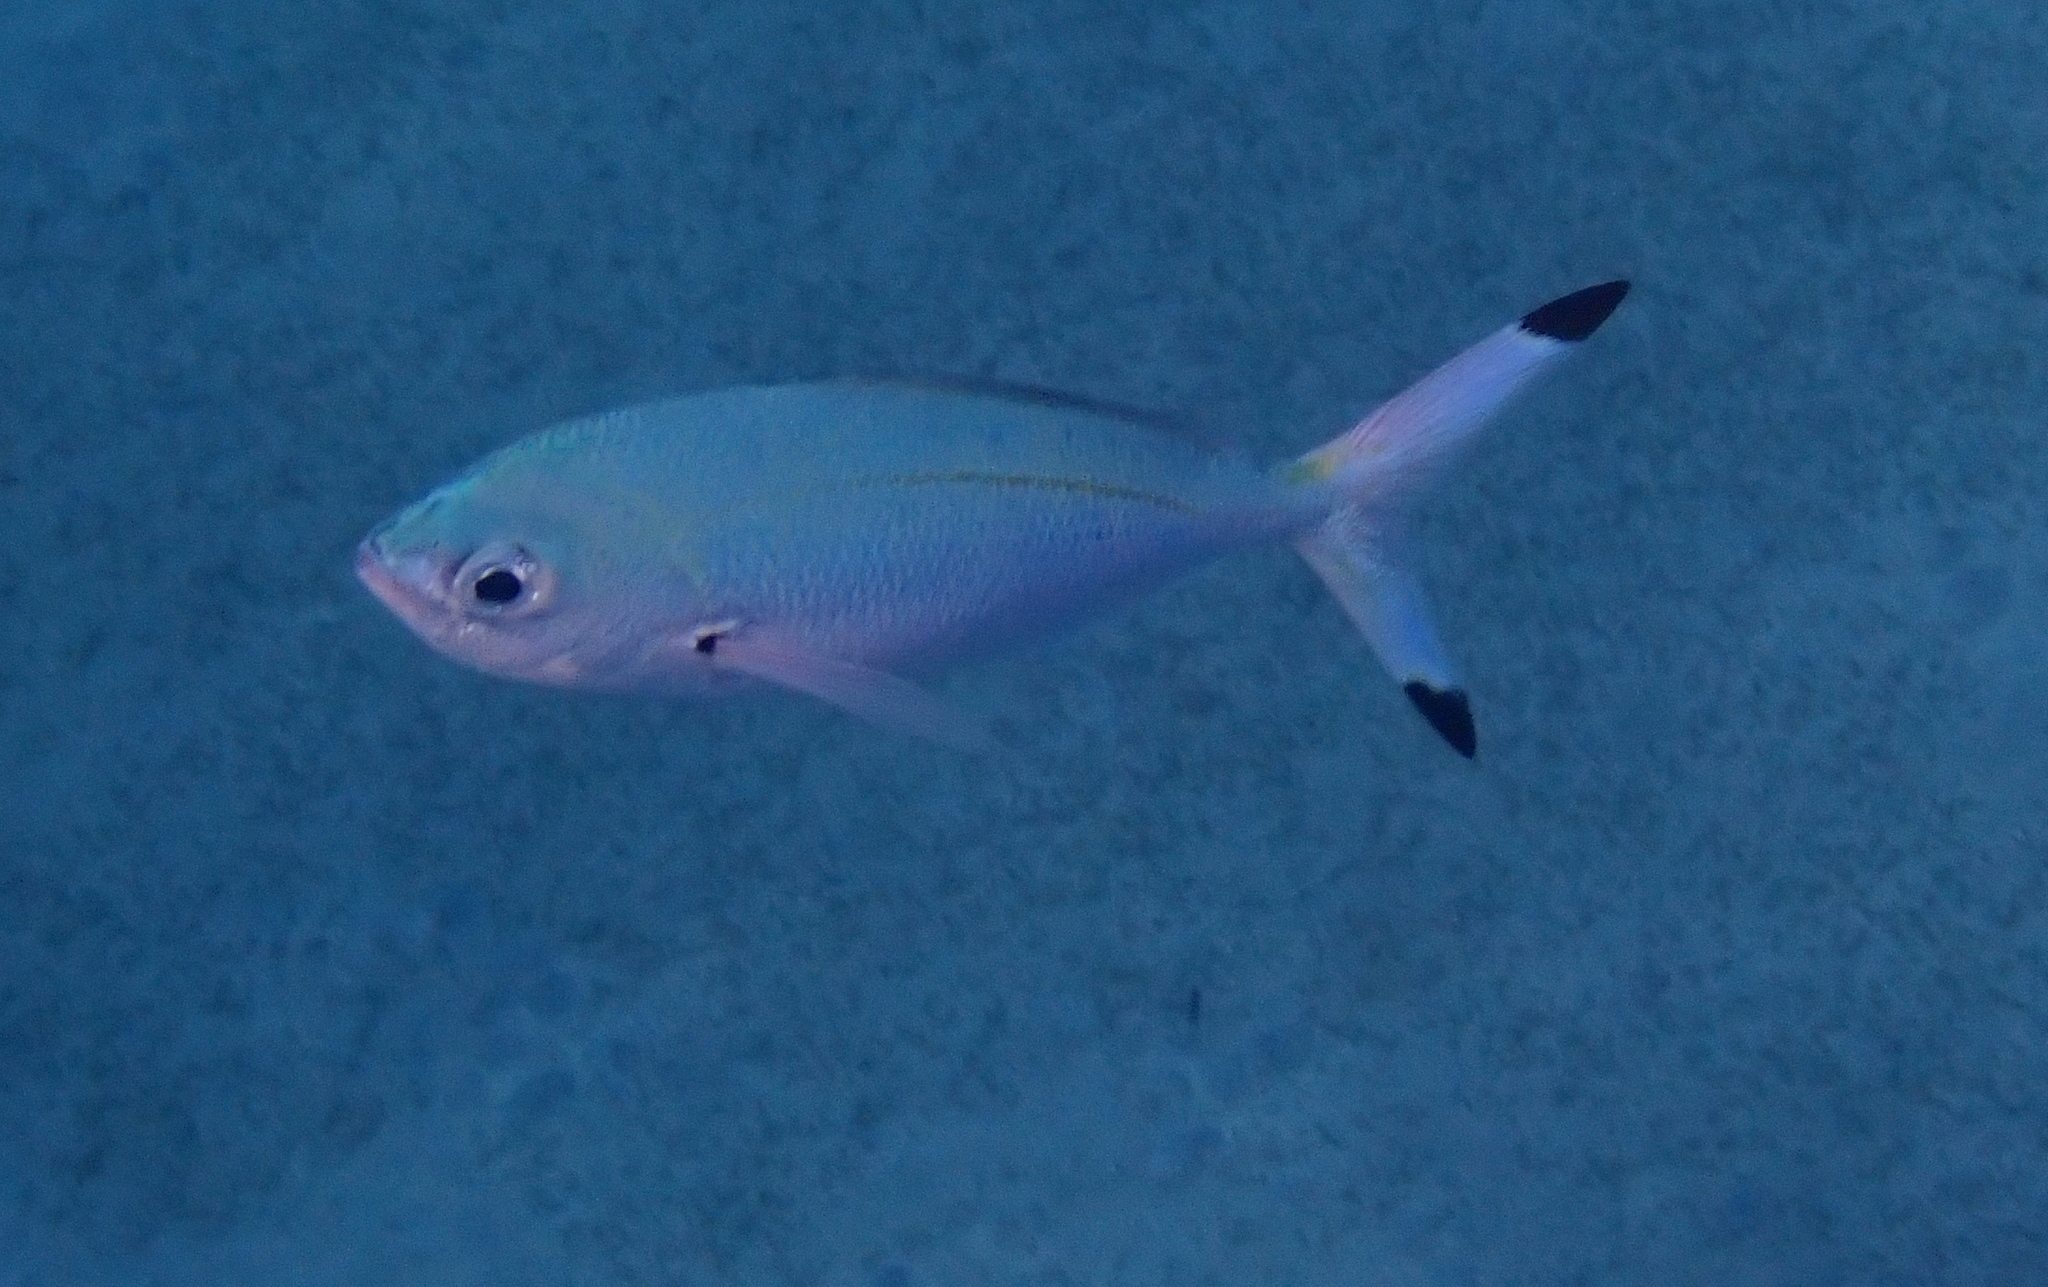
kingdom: Animalia
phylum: Chordata
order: Perciformes
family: Caesionidae
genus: Caesio
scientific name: Caesio lunaris
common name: Blue fusilier
